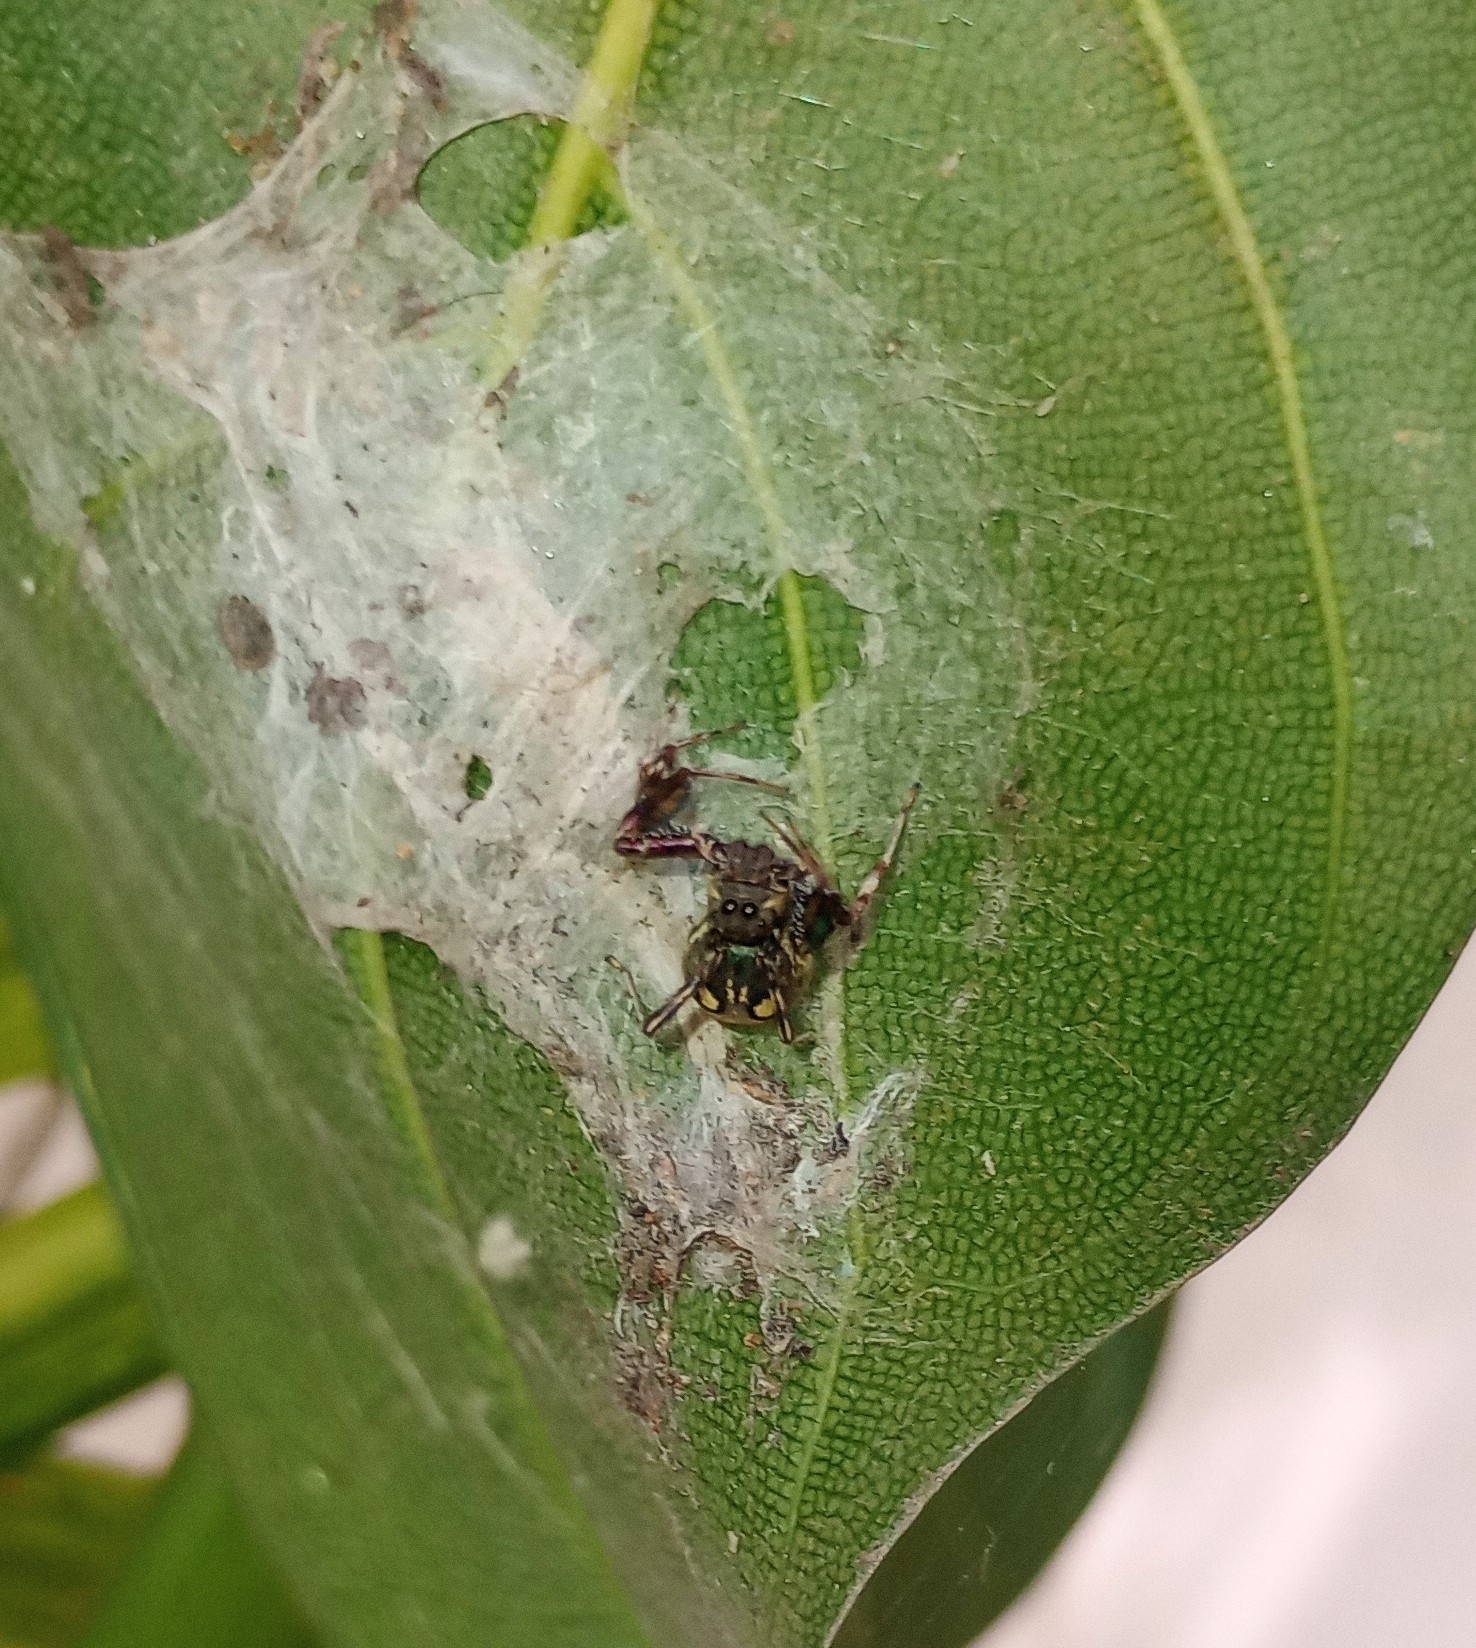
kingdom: Animalia
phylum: Arthropoda
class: Arachnida
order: Araneae
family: Salticidae
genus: Brettus
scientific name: Brettus cingulatus
